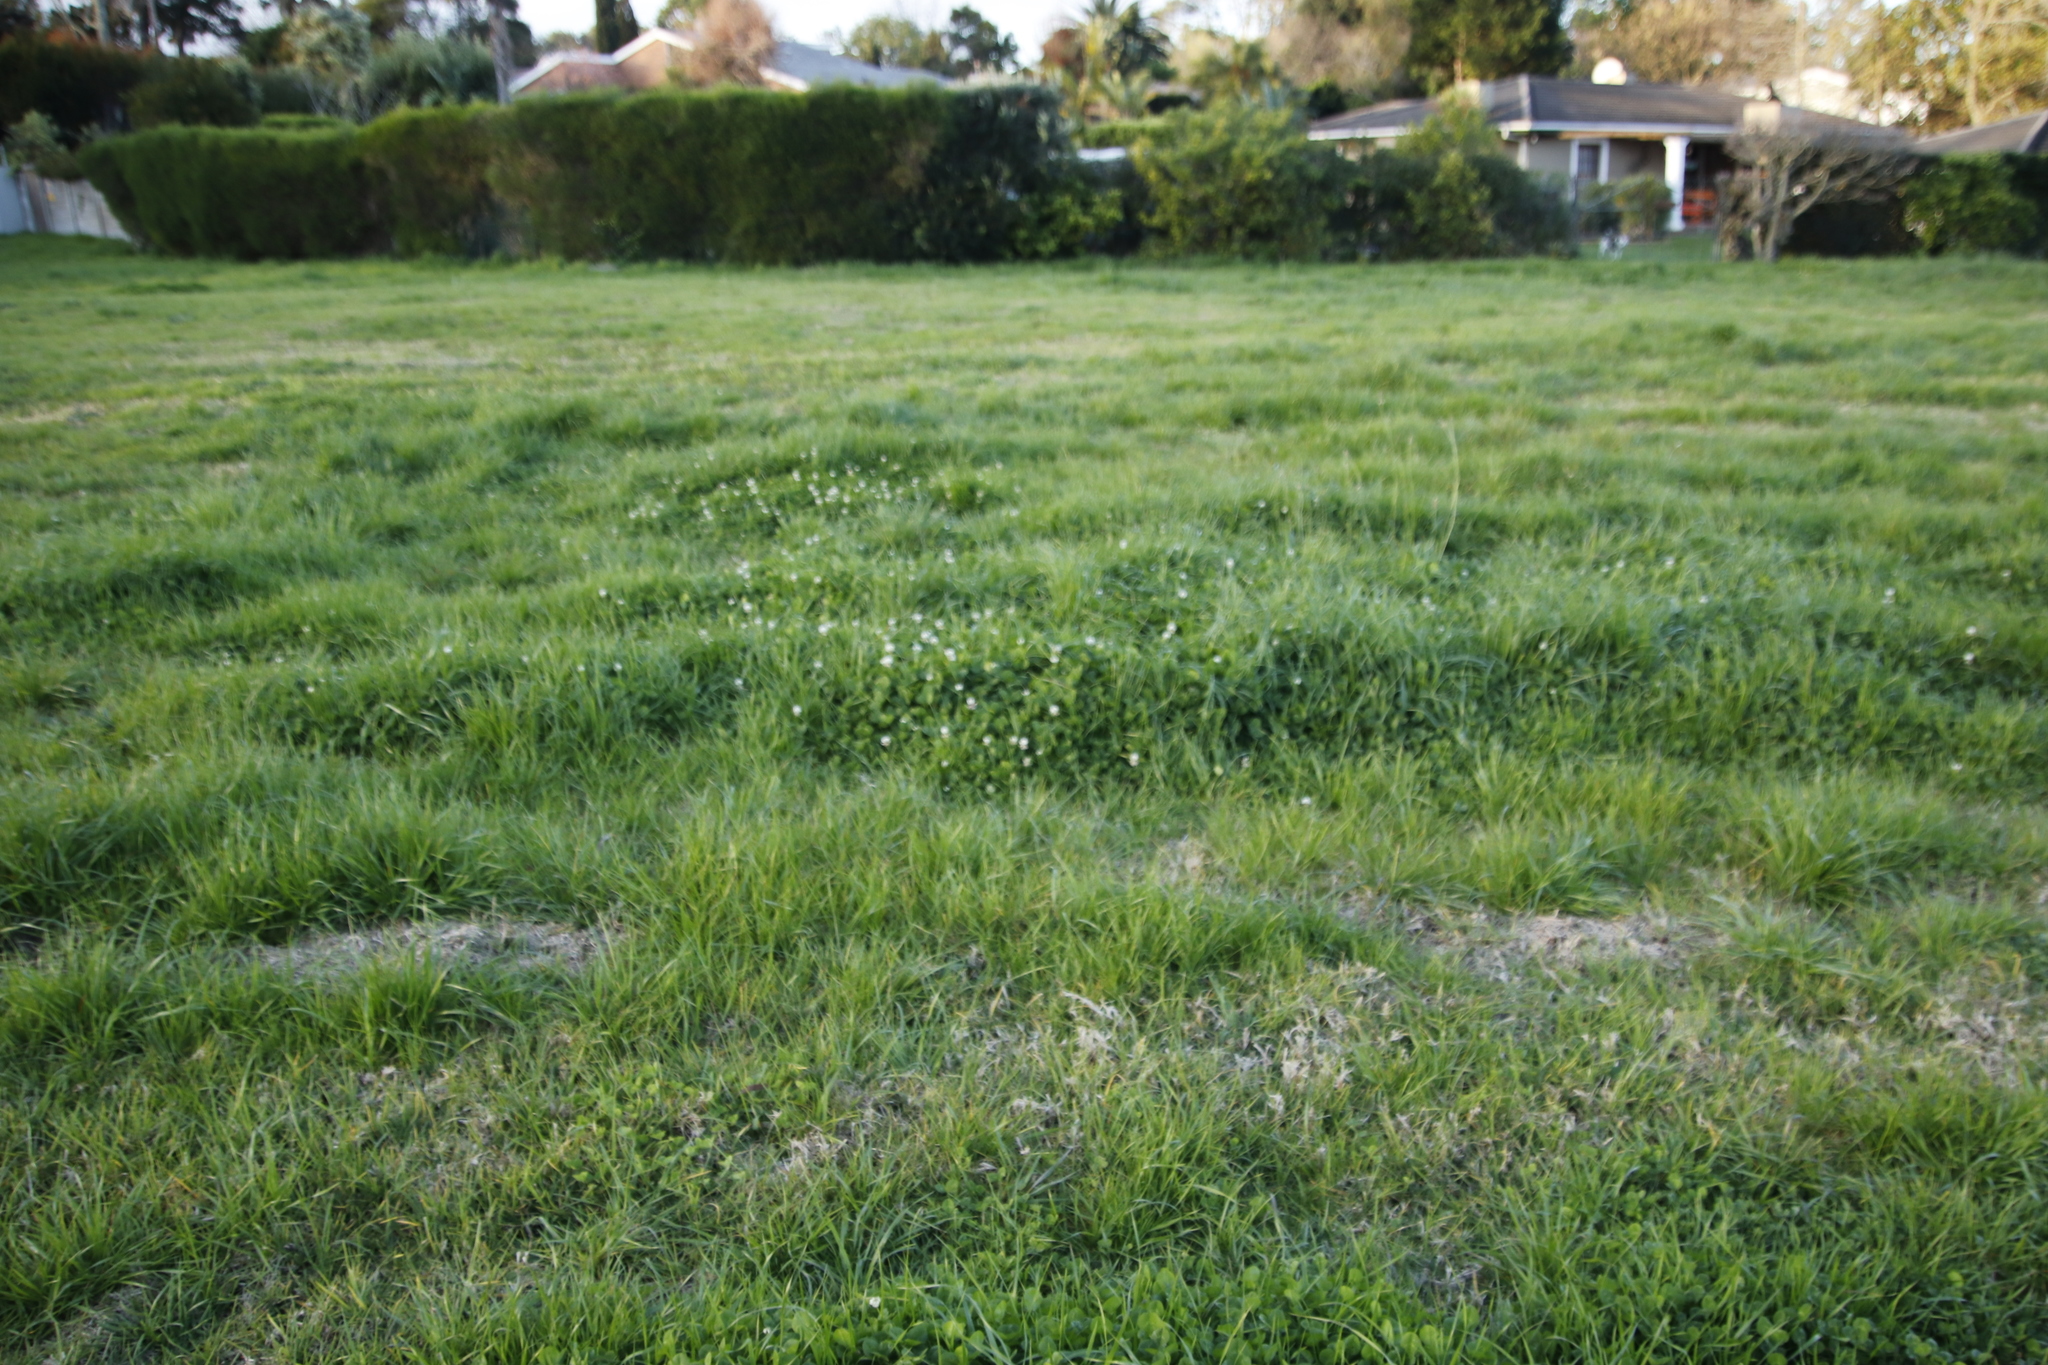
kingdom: Plantae
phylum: Tracheophyta
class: Magnoliopsida
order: Fabales
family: Fabaceae
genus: Trifolium
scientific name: Trifolium repens
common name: White clover
